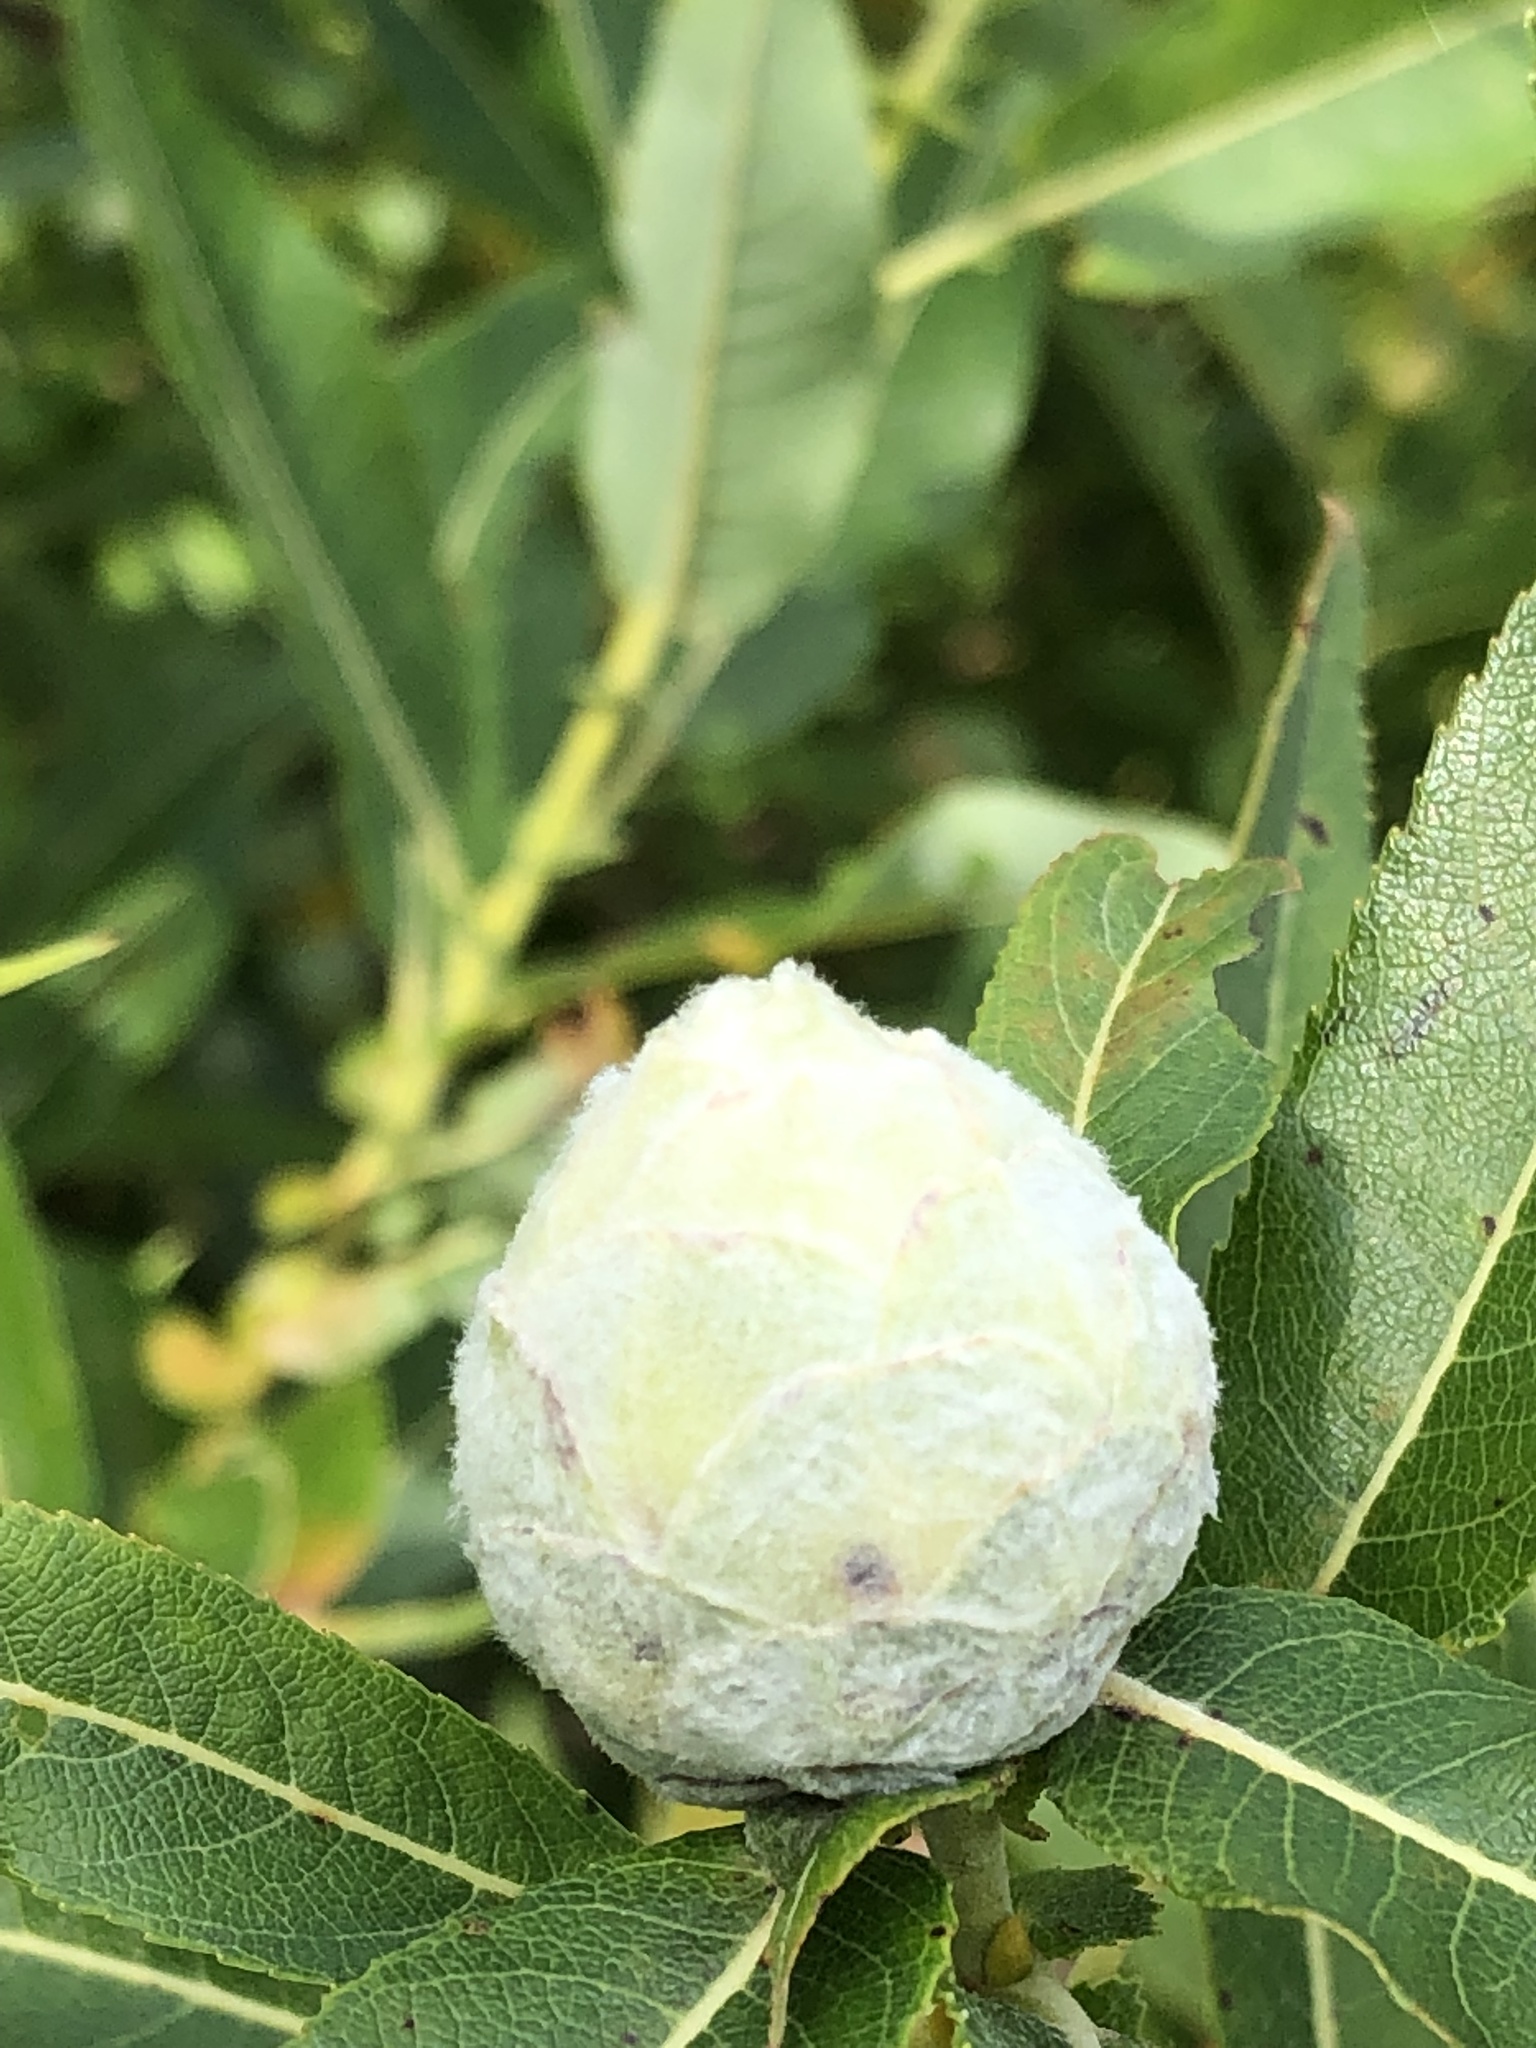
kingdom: Animalia
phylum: Arthropoda
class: Insecta
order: Diptera
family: Cecidomyiidae
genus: Rabdophaga
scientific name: Rabdophaga strobiloides
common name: Willow pinecone gall midge
